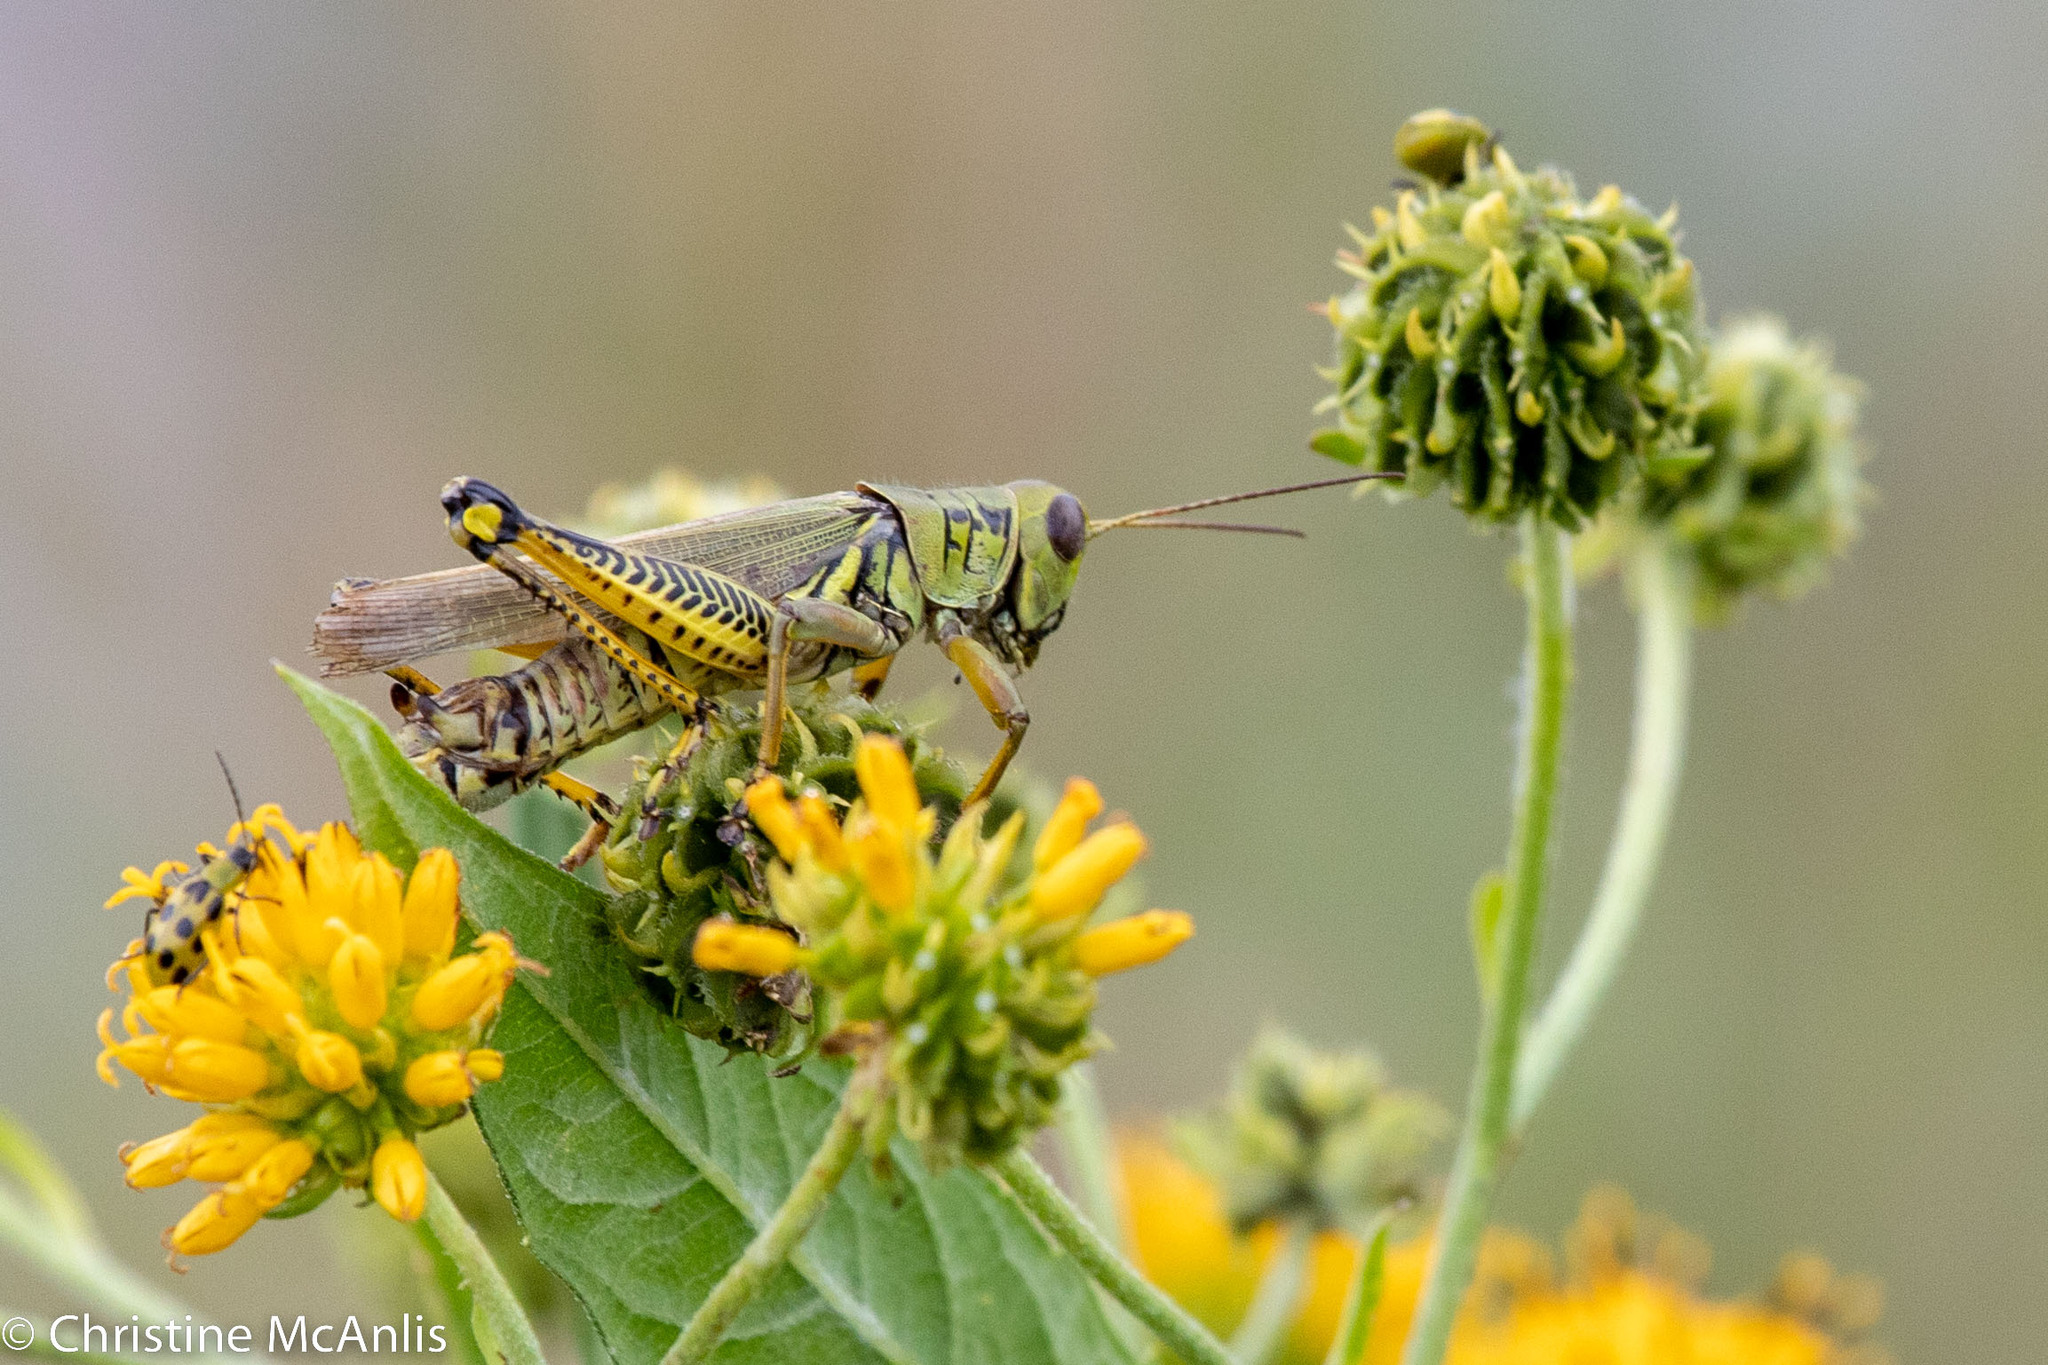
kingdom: Animalia
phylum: Arthropoda
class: Insecta
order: Orthoptera
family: Acrididae
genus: Melanoplus
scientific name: Melanoplus differentialis
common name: Differential grasshopper
